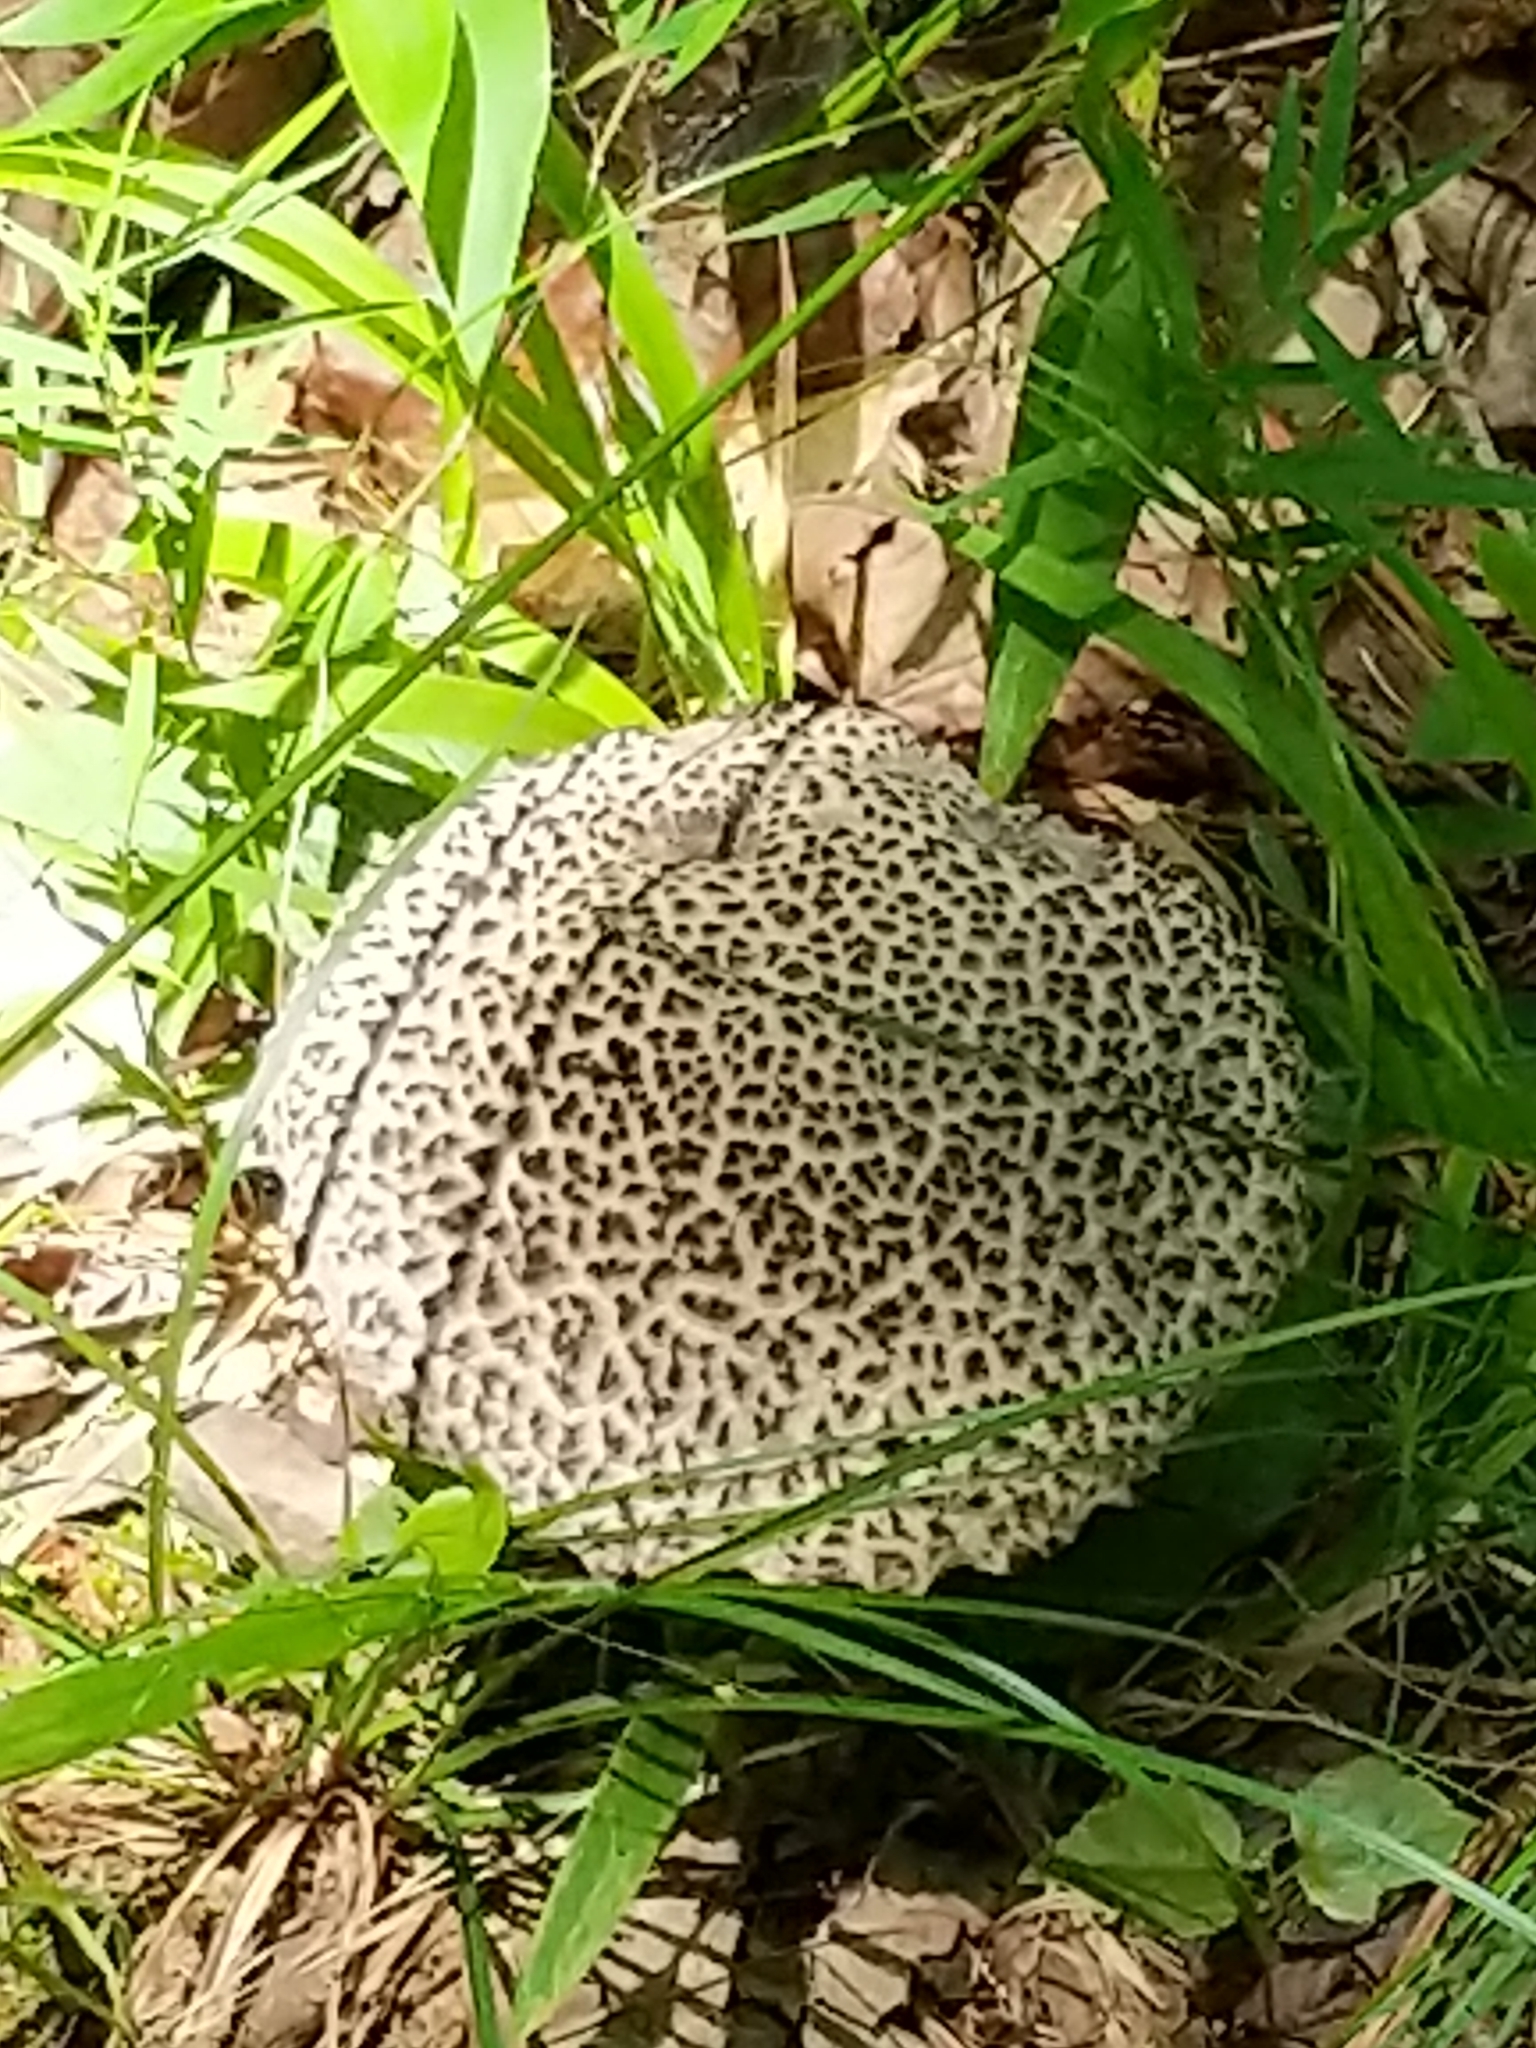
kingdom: Fungi
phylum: Basidiomycota
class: Agaricomycetes
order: Boletales
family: Boletaceae
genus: Strobilomyces
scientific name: Strobilomyces strobilaceus
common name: Old man of the woods
